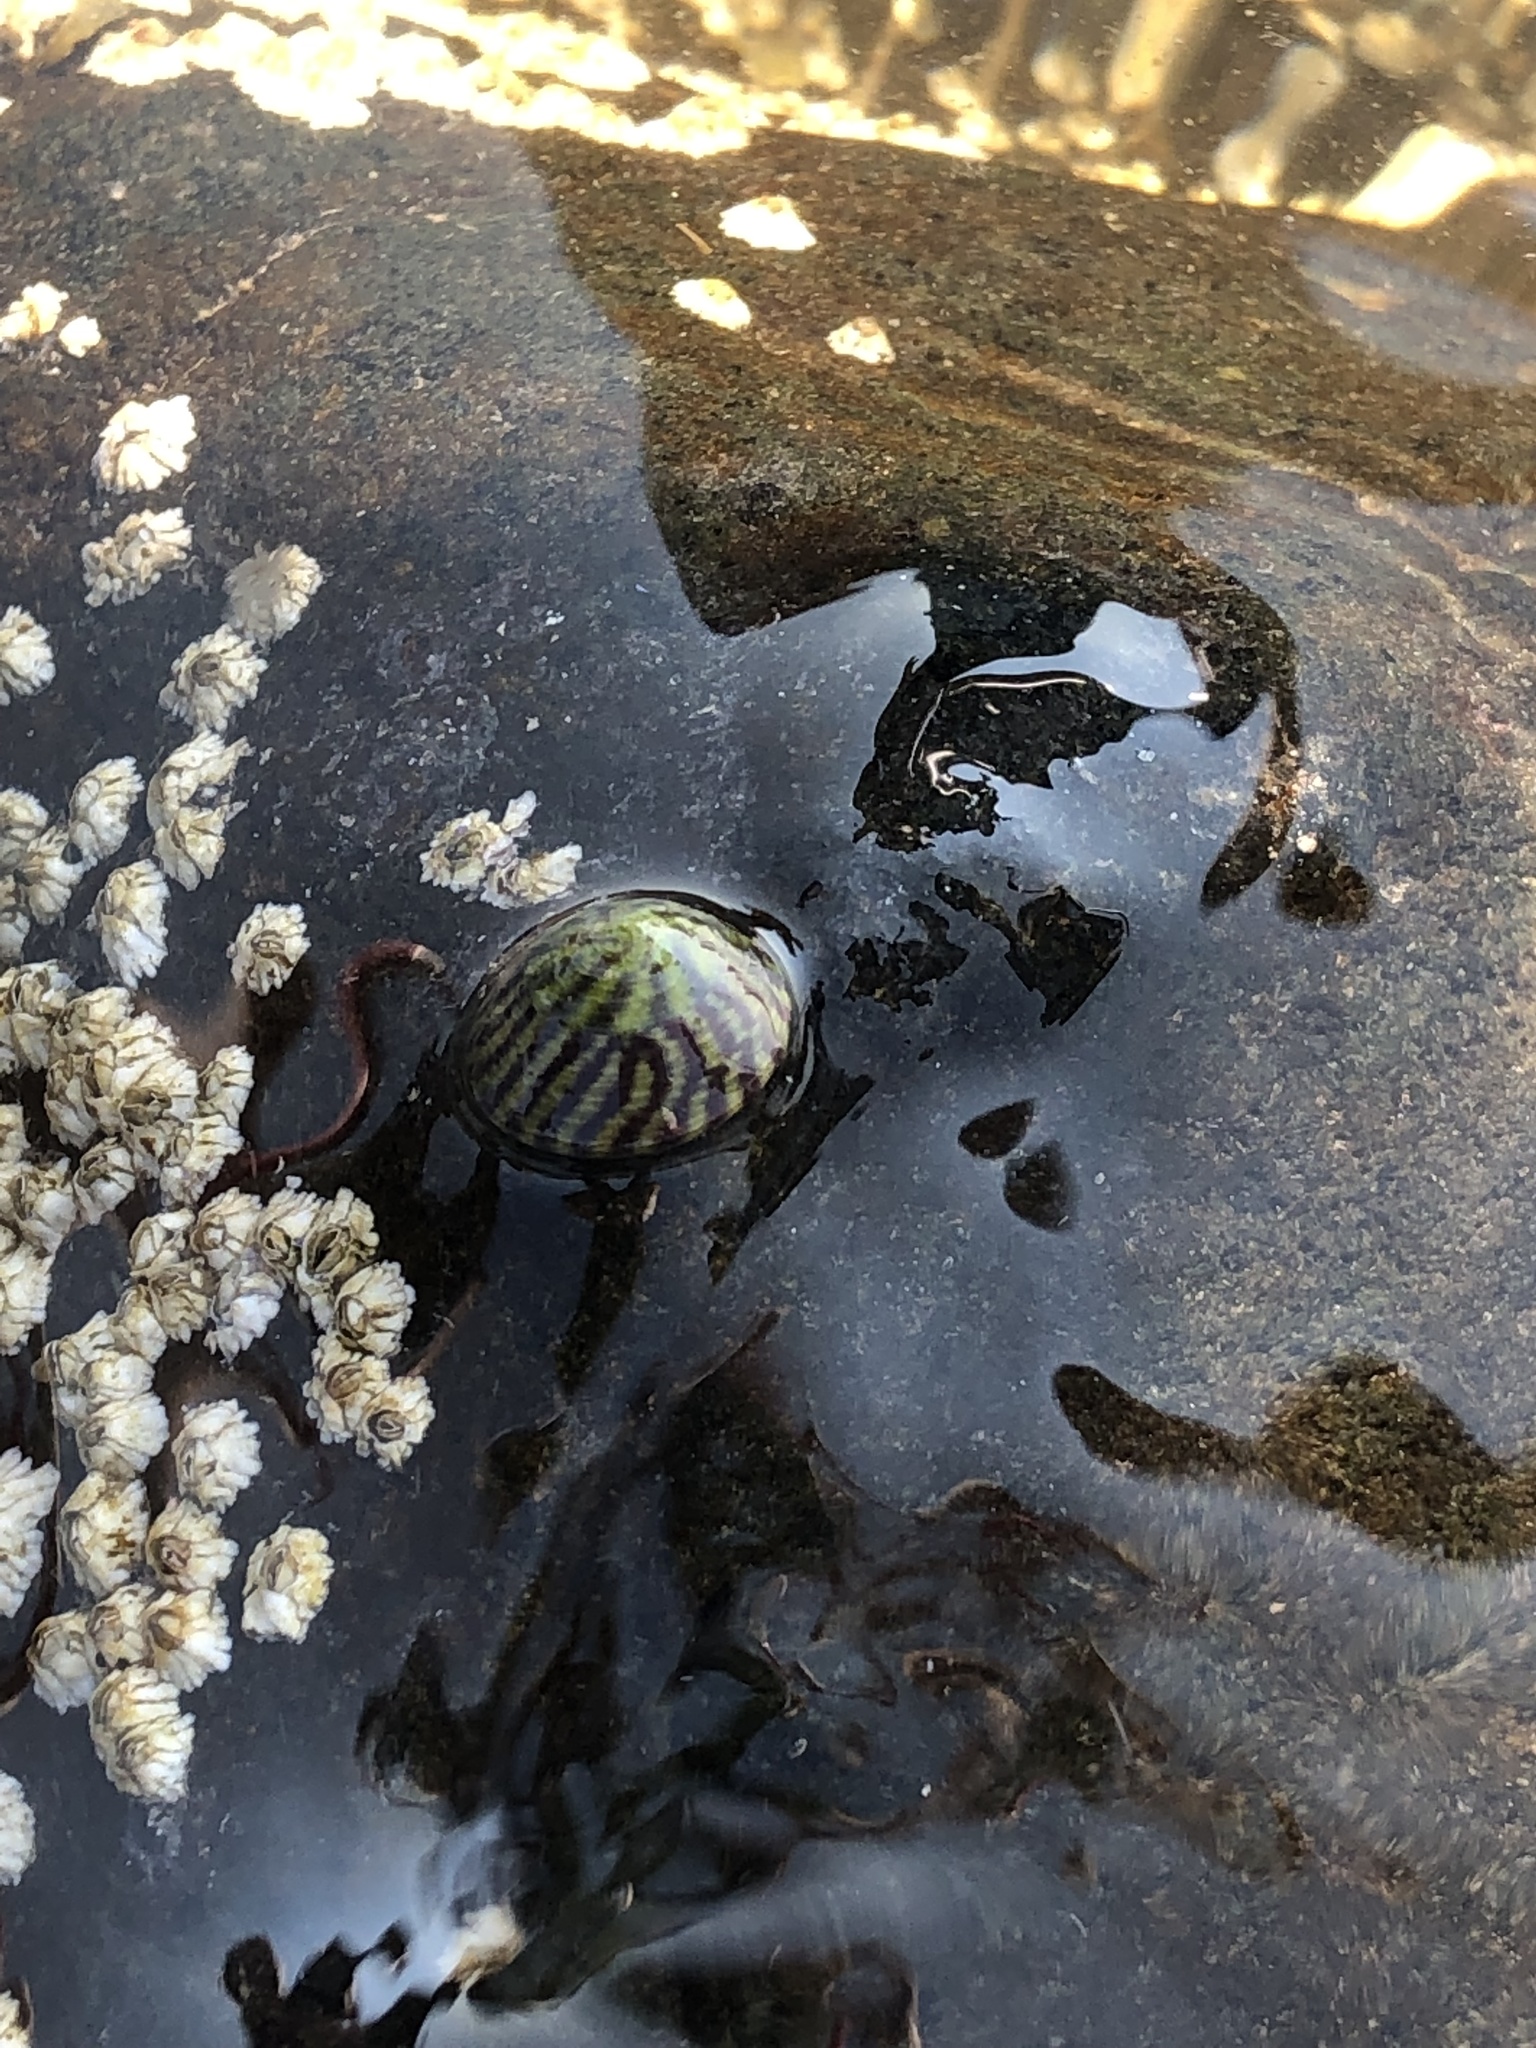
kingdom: Animalia
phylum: Mollusca
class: Gastropoda
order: Trochida
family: Trochidae
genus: Steromphala
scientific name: Steromphala umbilicalis
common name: Flat top shell
